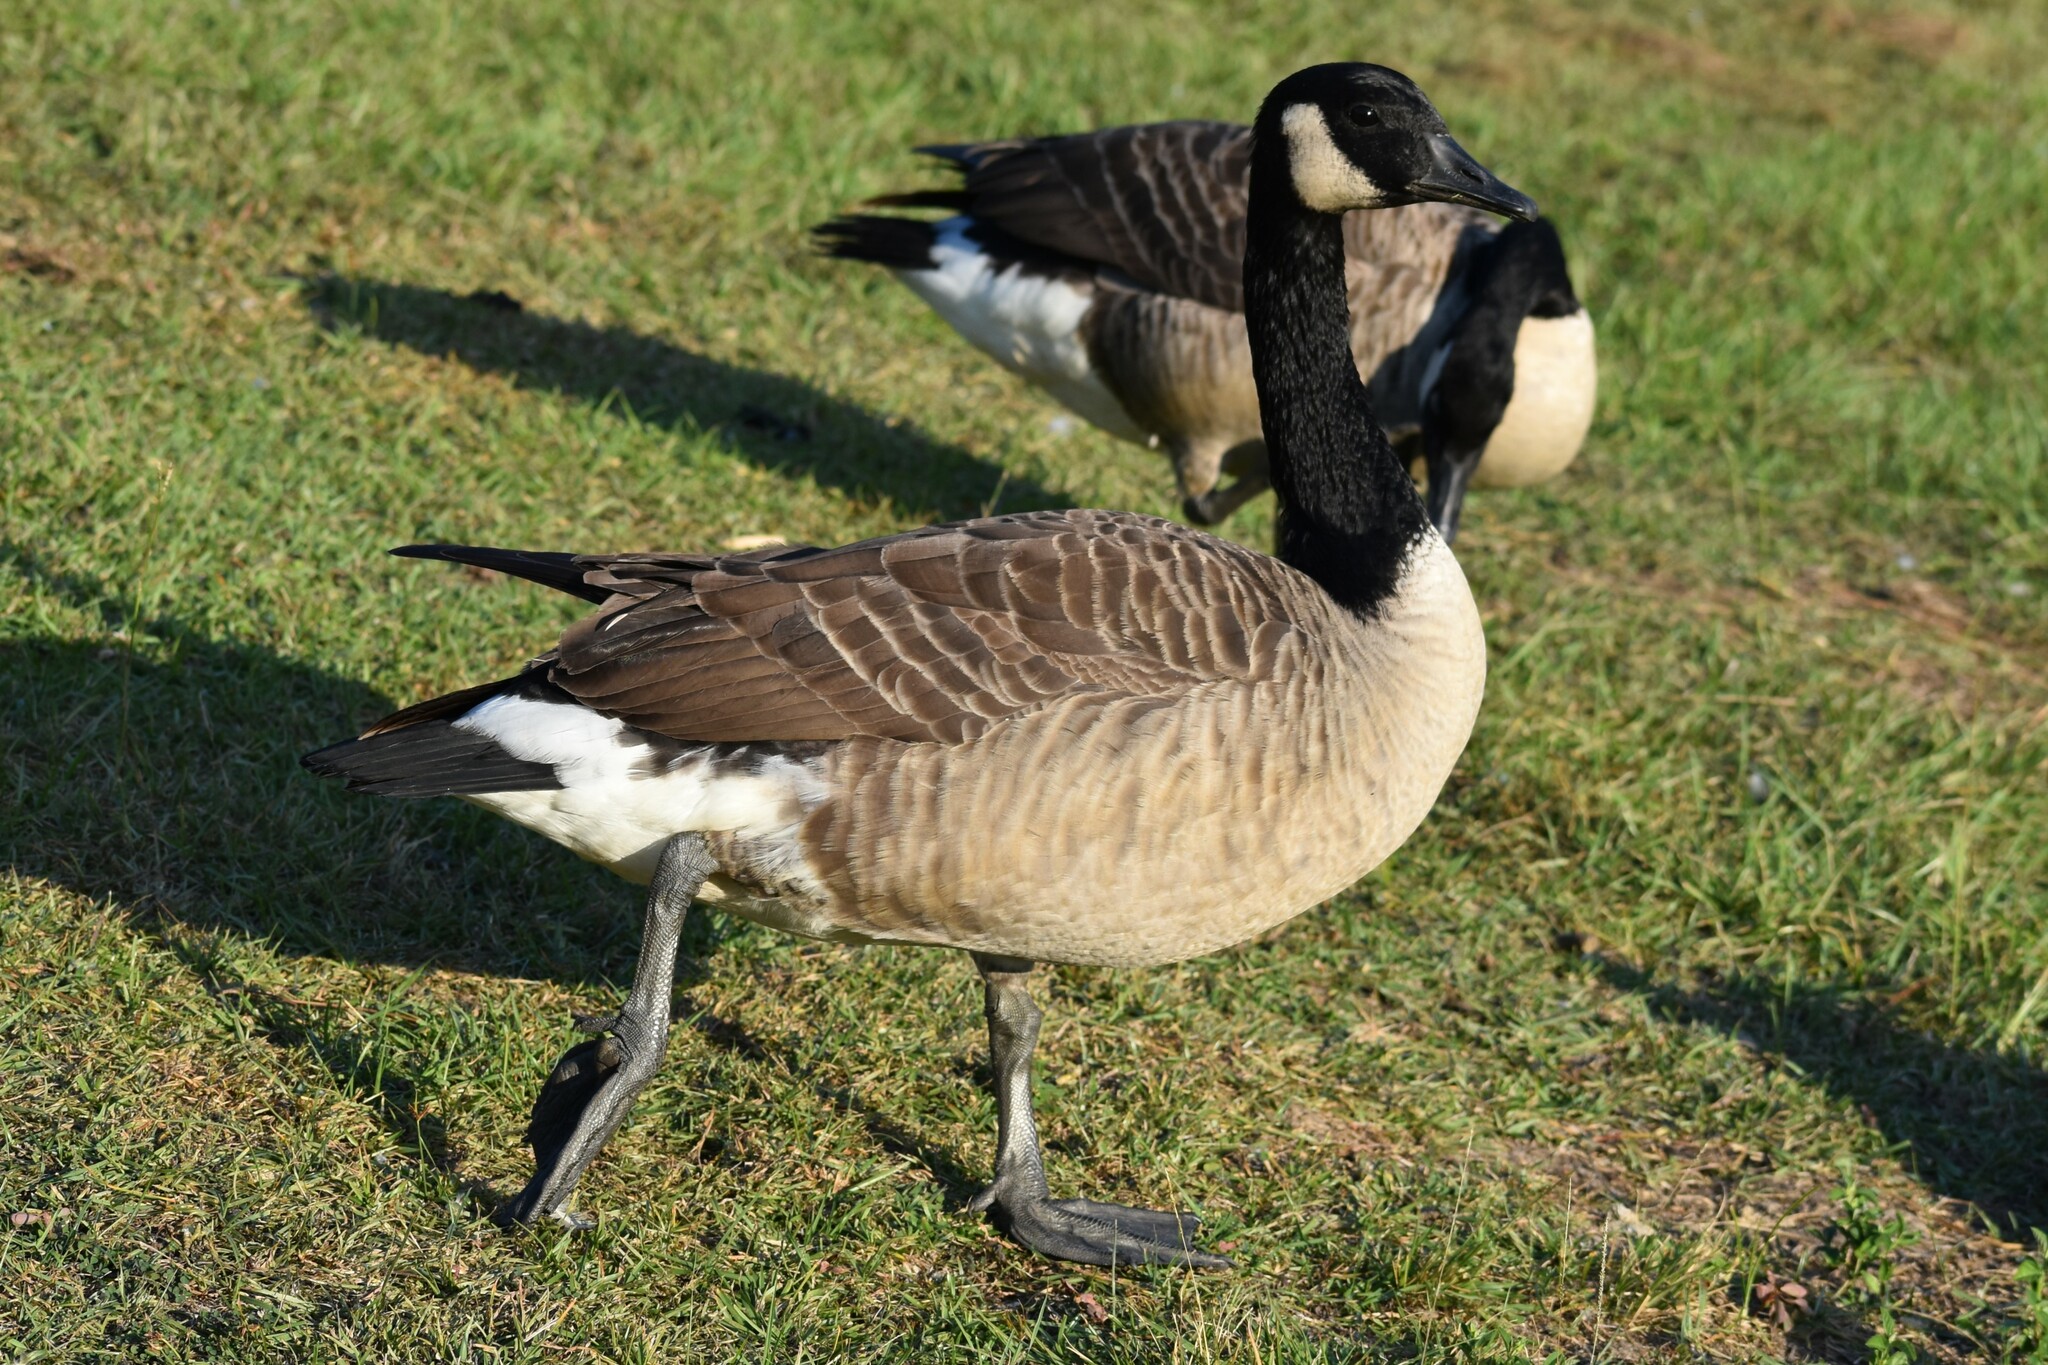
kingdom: Animalia
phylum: Chordata
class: Aves
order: Anseriformes
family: Anatidae
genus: Branta
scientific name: Branta canadensis
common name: Canada goose
